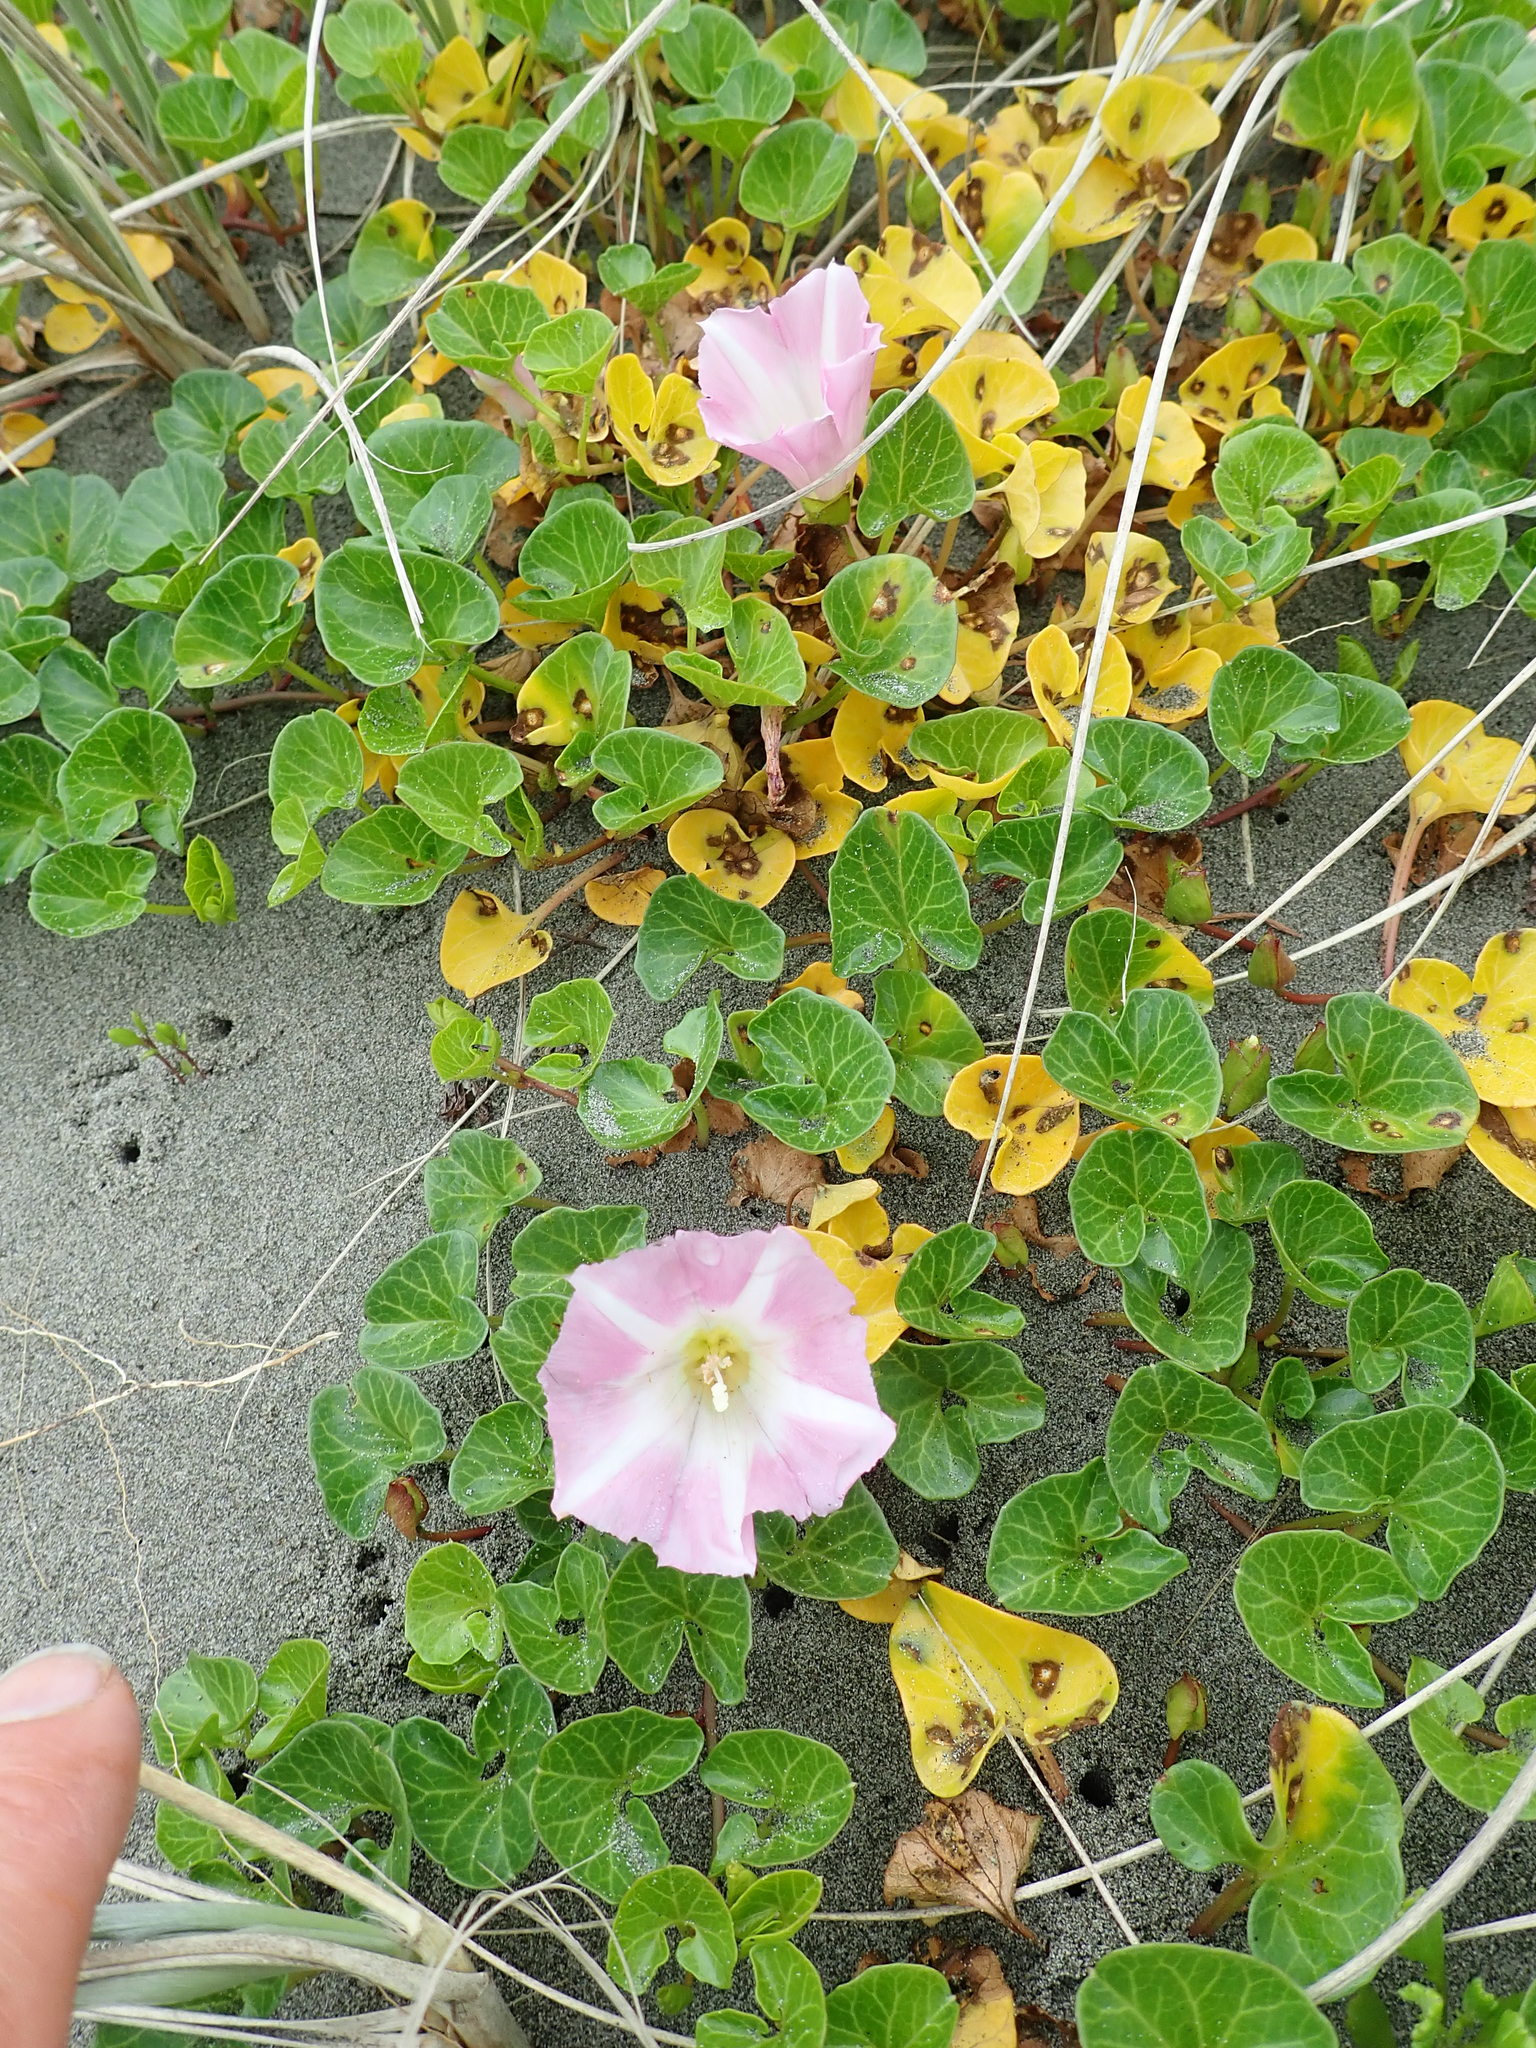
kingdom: Plantae
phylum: Tracheophyta
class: Magnoliopsida
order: Solanales
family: Convolvulaceae
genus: Calystegia
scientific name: Calystegia soldanella
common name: Sea bindweed
